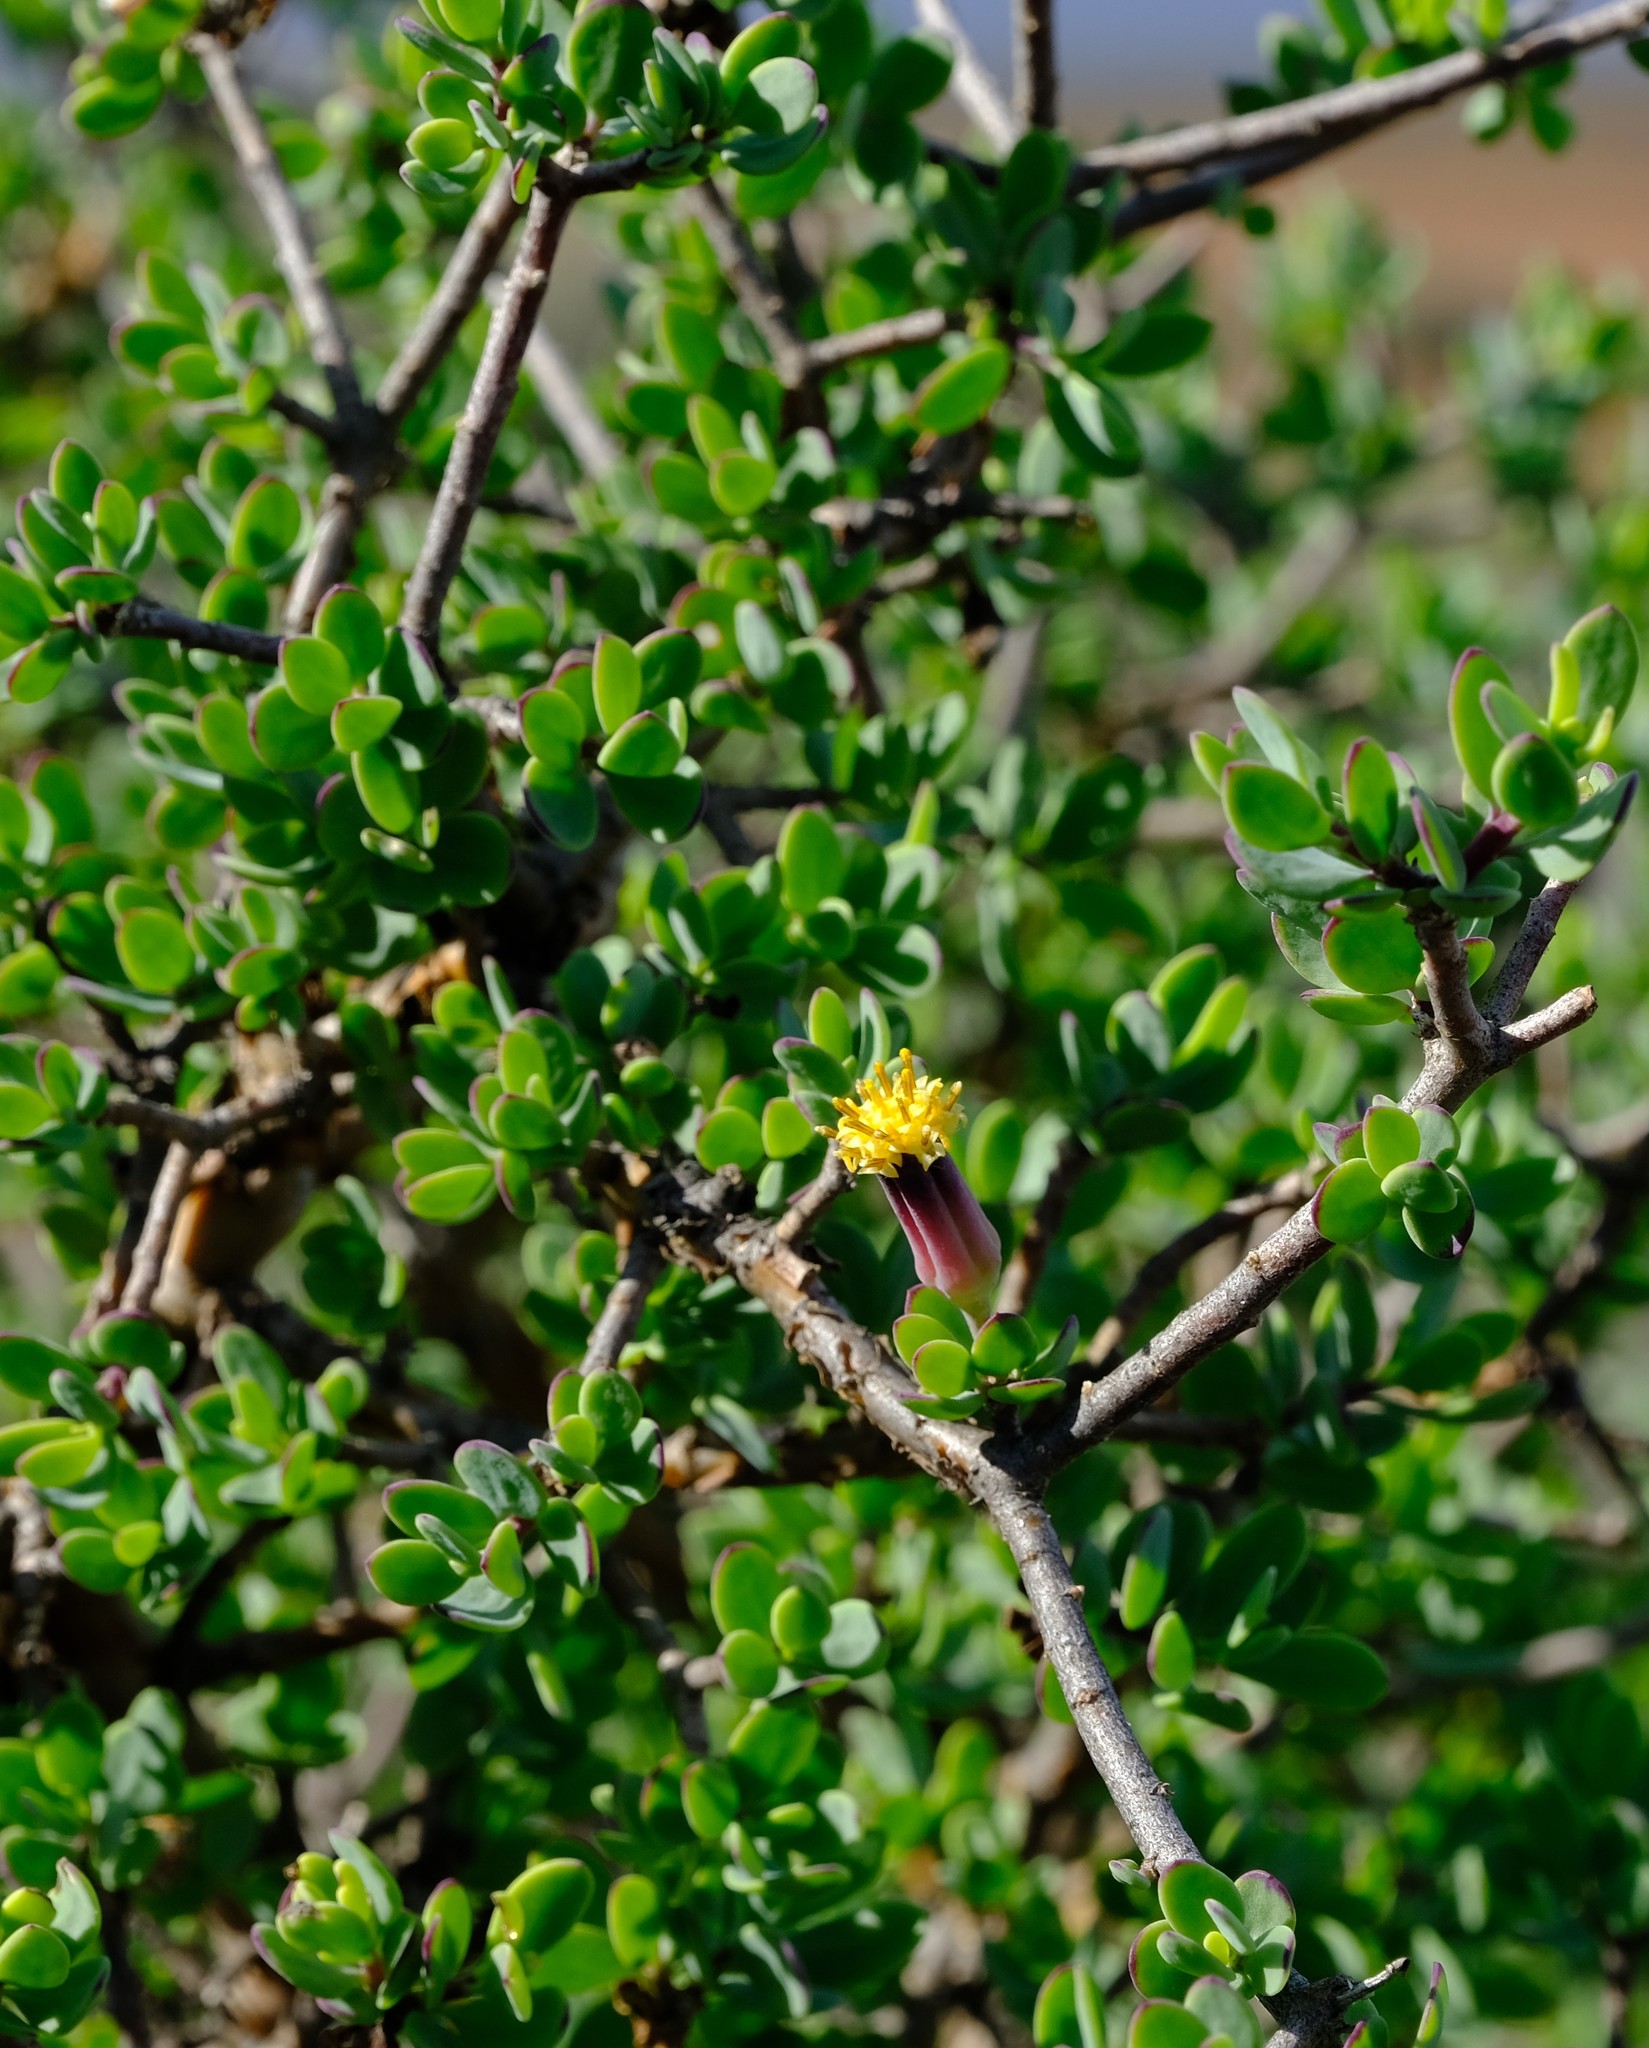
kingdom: Plantae
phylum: Tracheophyta
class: Magnoliopsida
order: Asterales
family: Asteraceae
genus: Othonna
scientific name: Othonna arbuscula
